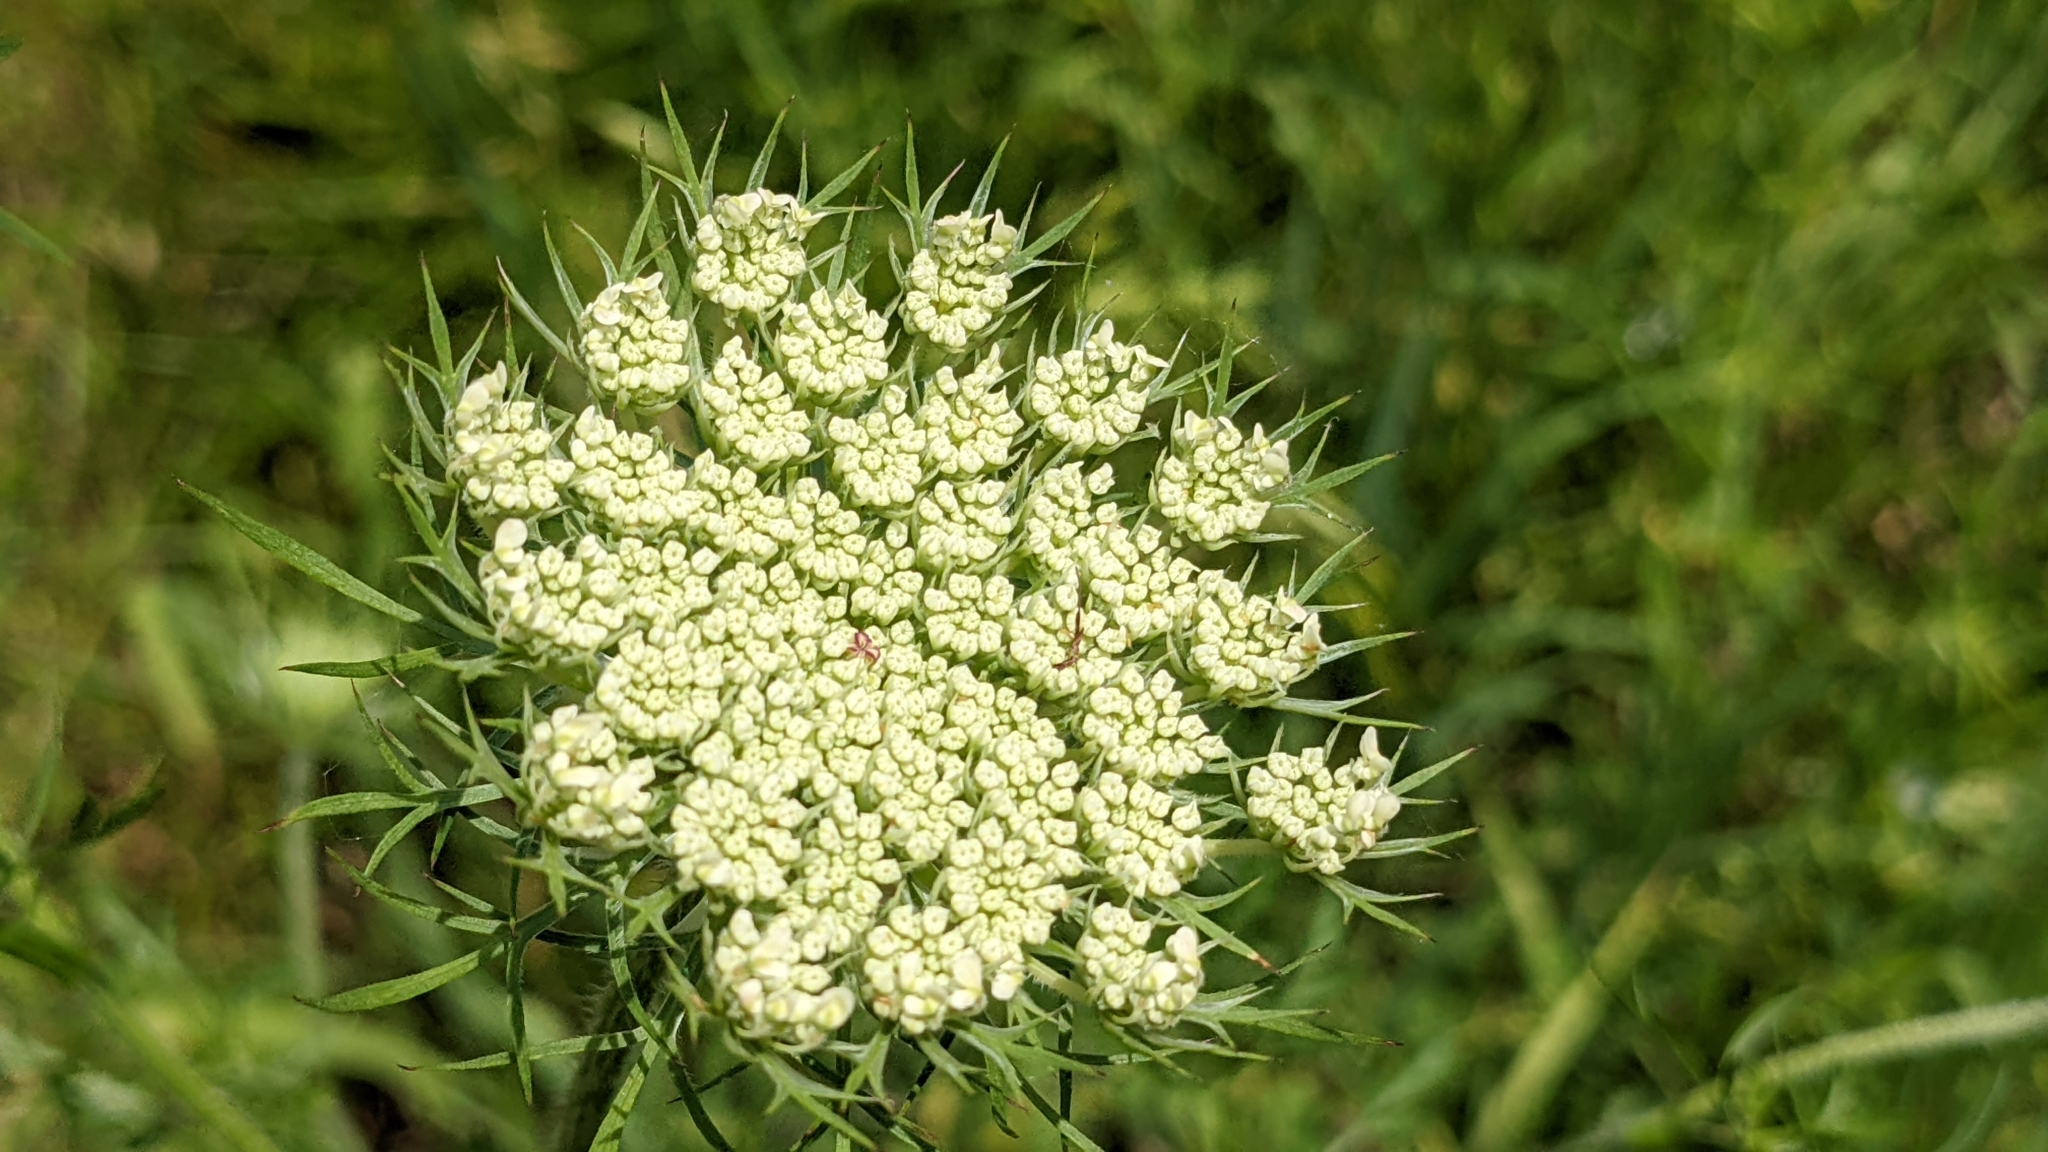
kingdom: Plantae
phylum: Tracheophyta
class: Magnoliopsida
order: Apiales
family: Apiaceae
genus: Daucus
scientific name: Daucus carota
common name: Wild carrot
